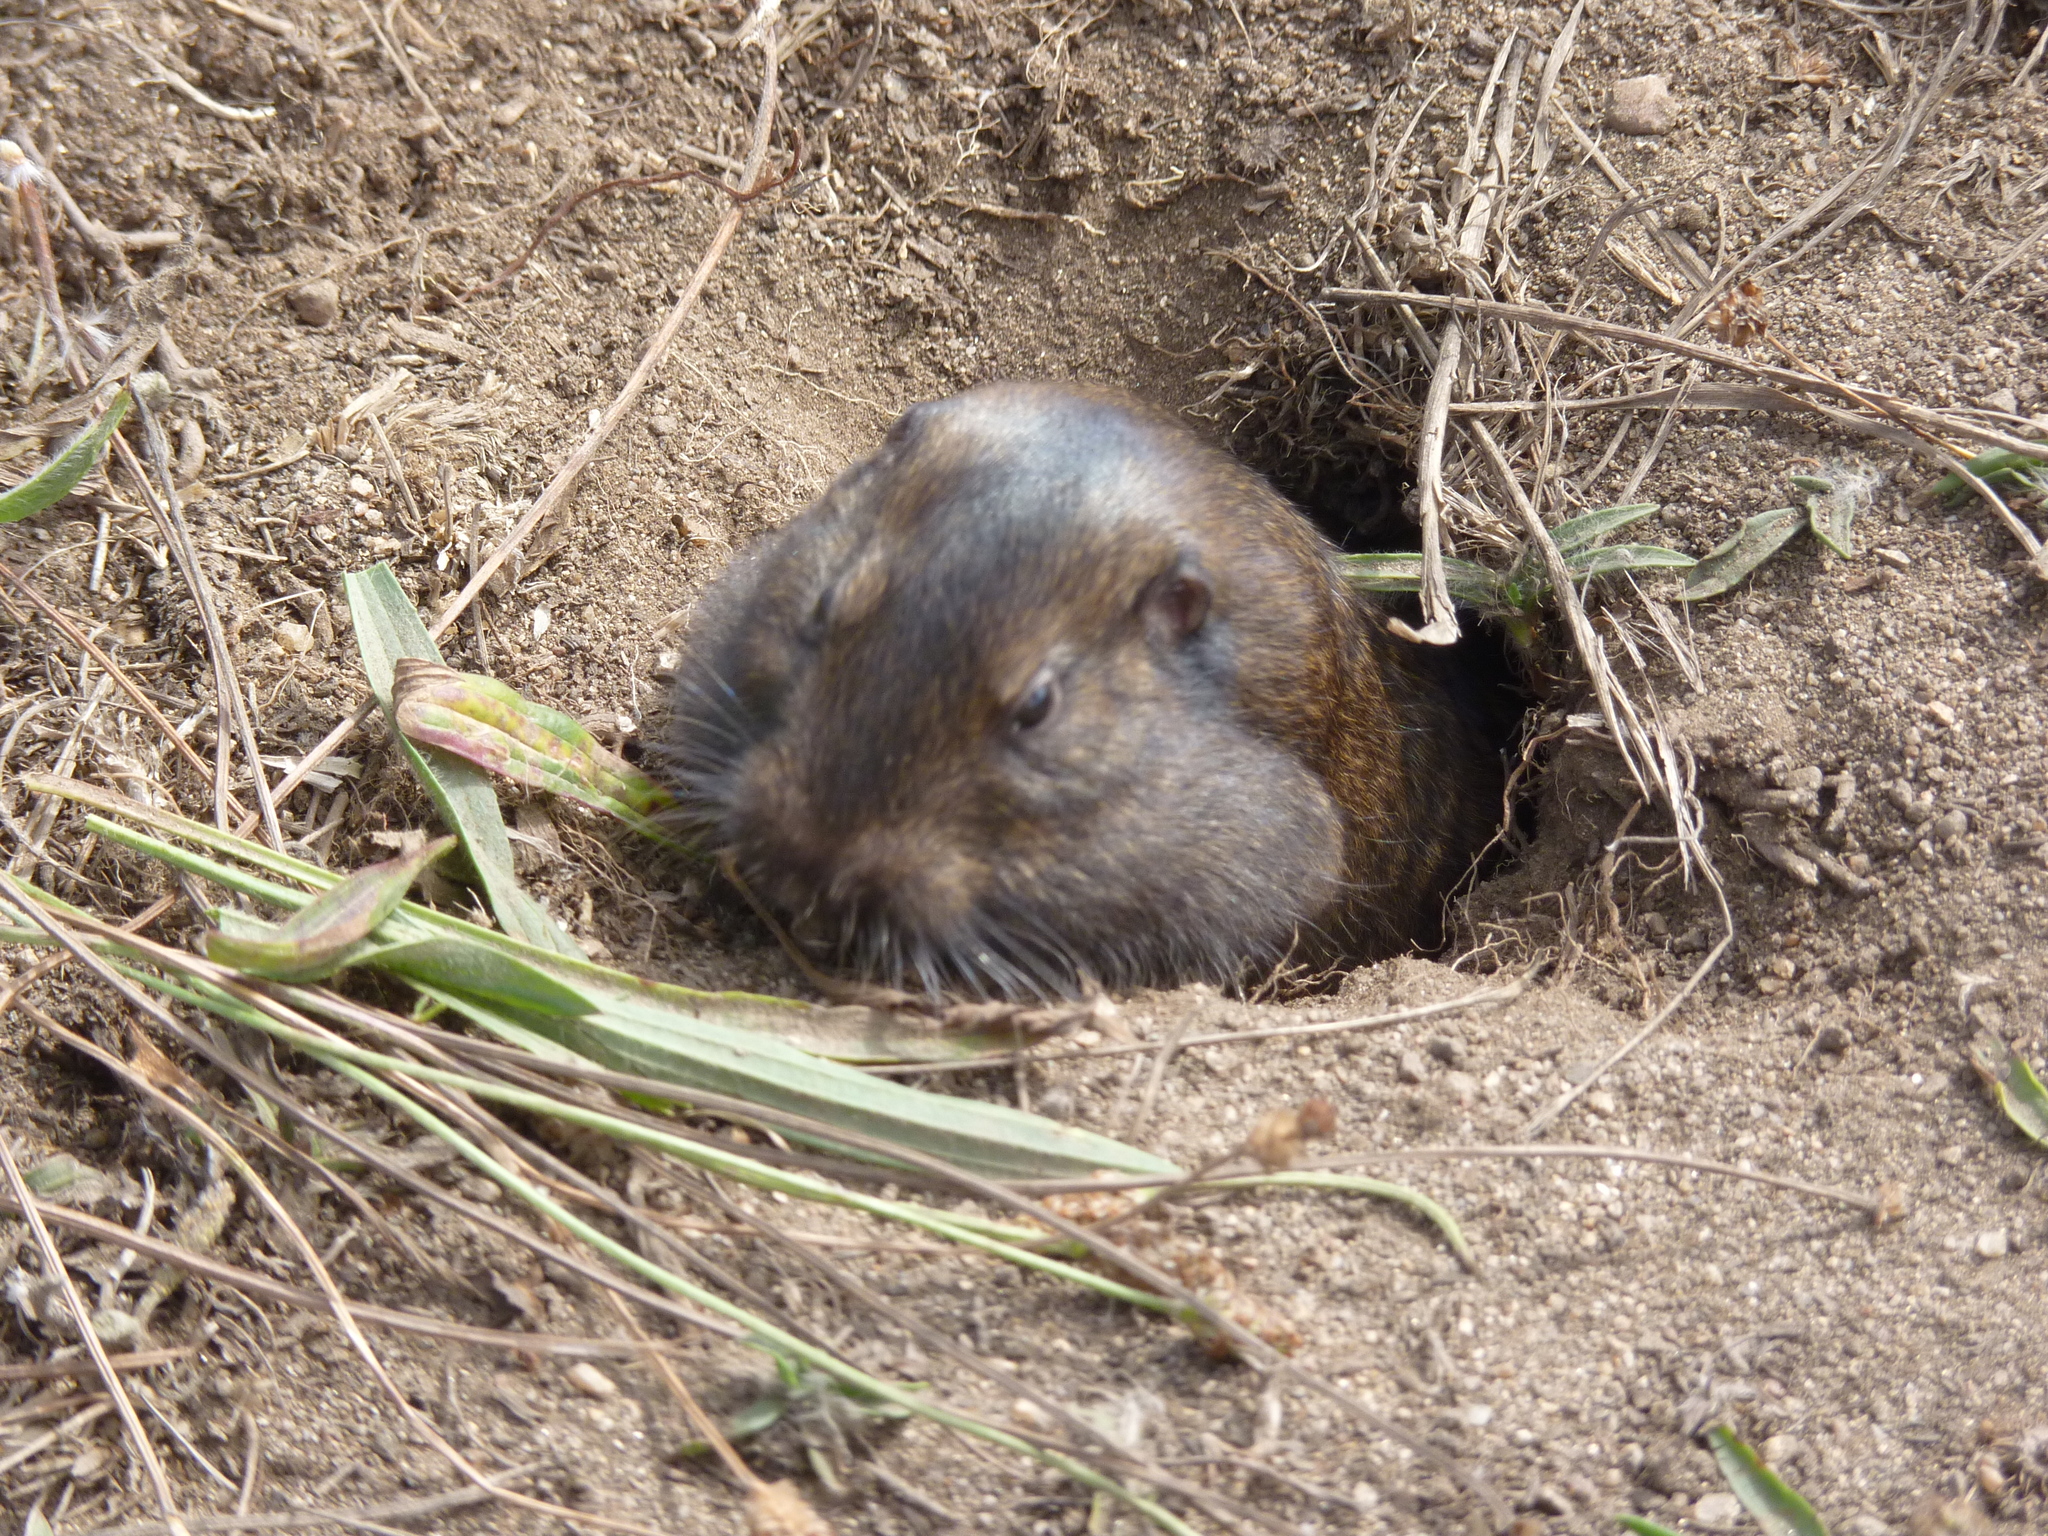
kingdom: Animalia
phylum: Chordata
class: Mammalia
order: Rodentia
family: Geomyidae
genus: Thomomys
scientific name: Thomomys bottae
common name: Botta's pocket gopher
